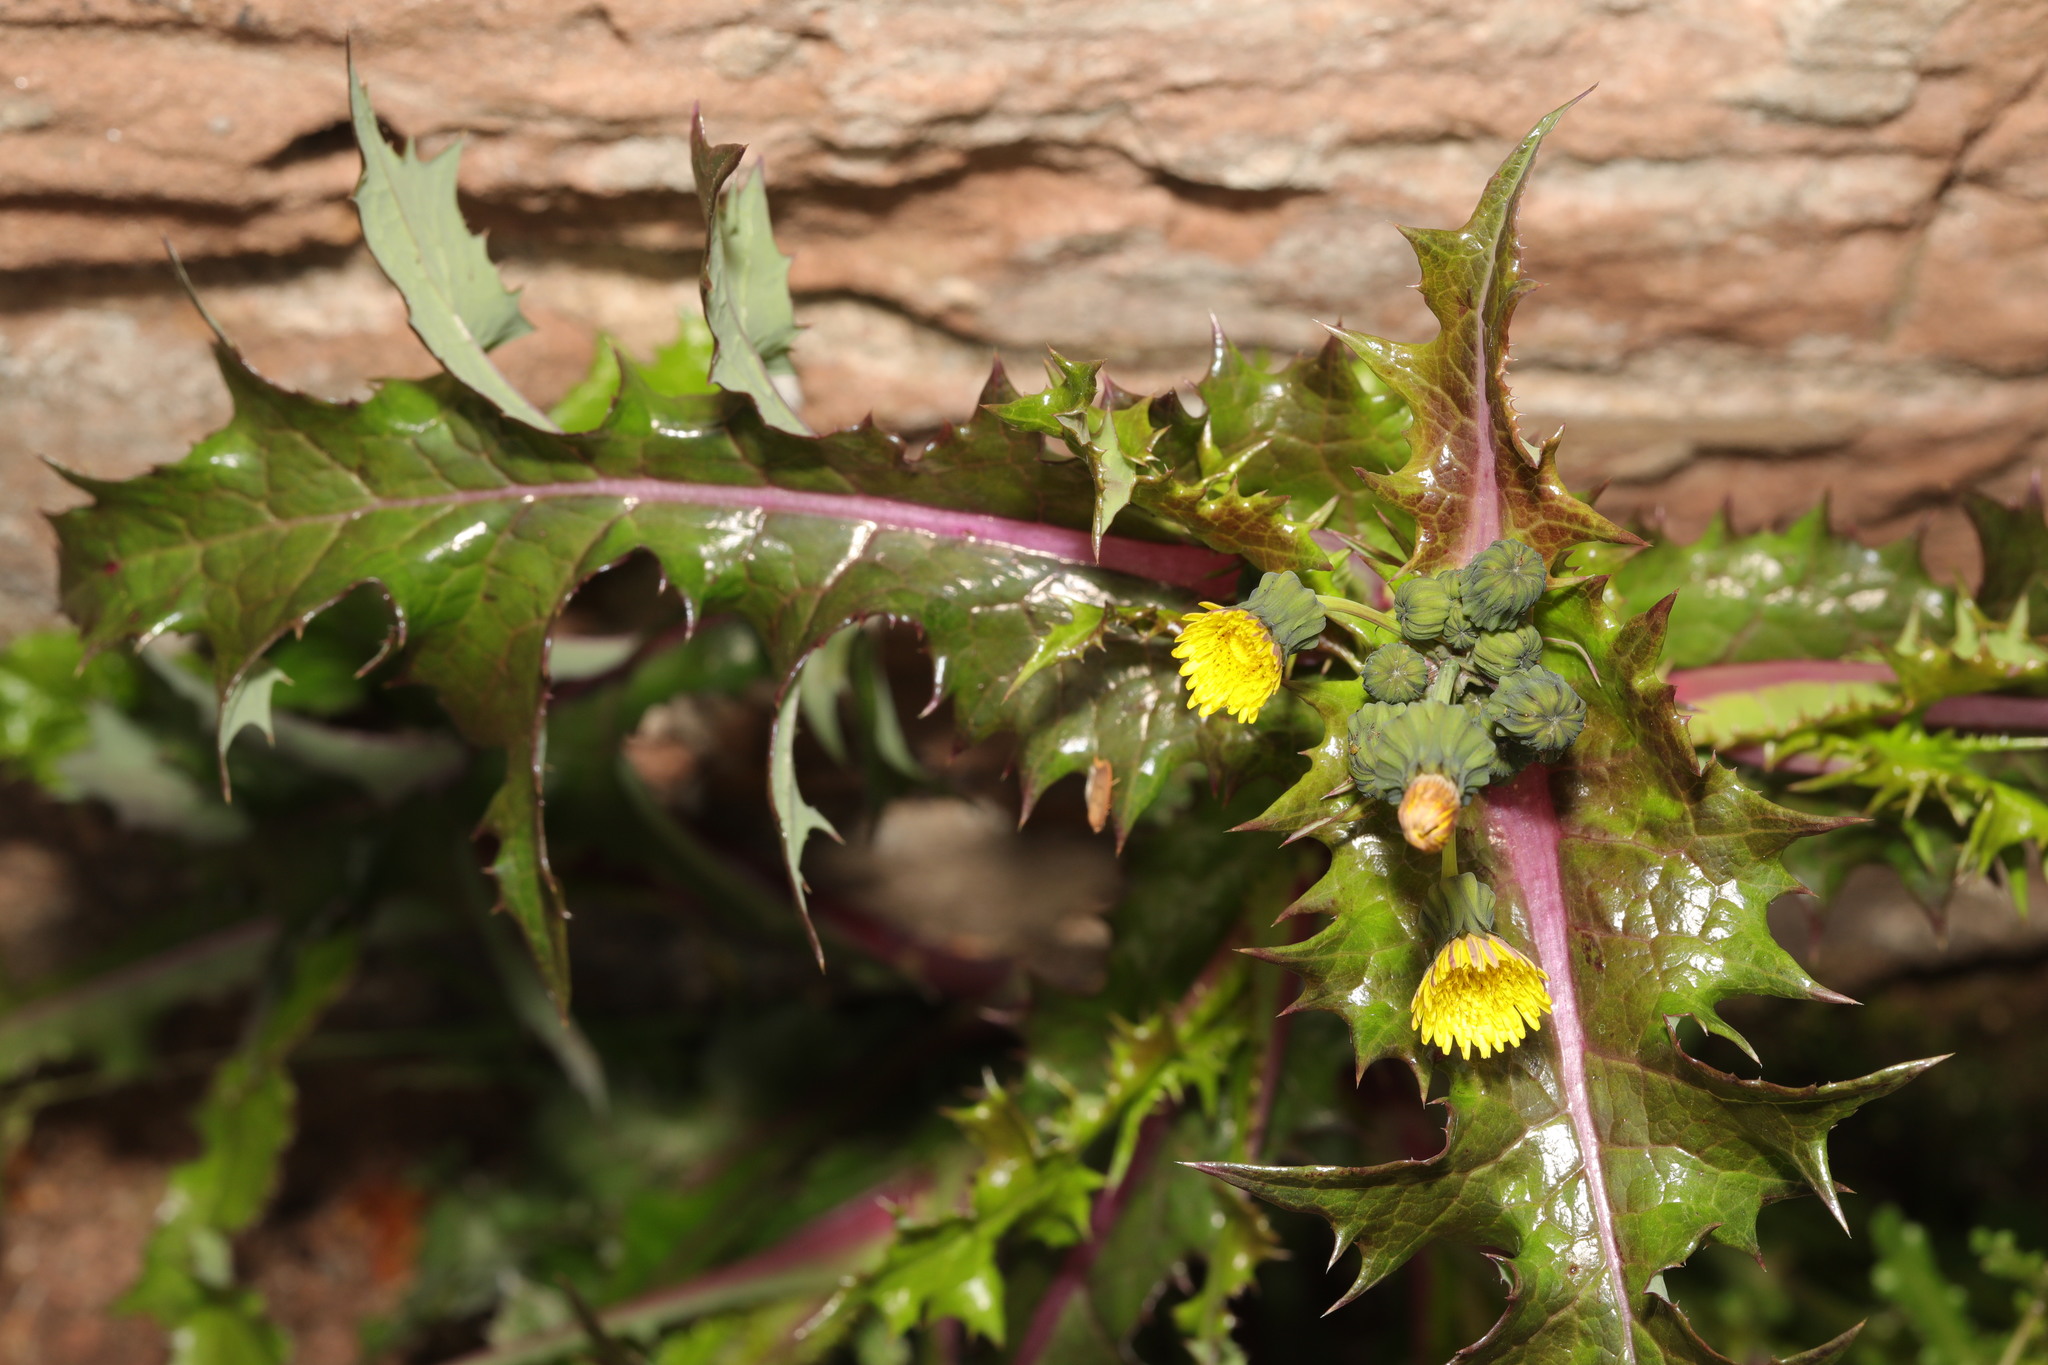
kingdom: Plantae
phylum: Tracheophyta
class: Magnoliopsida
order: Asterales
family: Asteraceae
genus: Sonchus
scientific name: Sonchus asper
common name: Prickly sow-thistle
